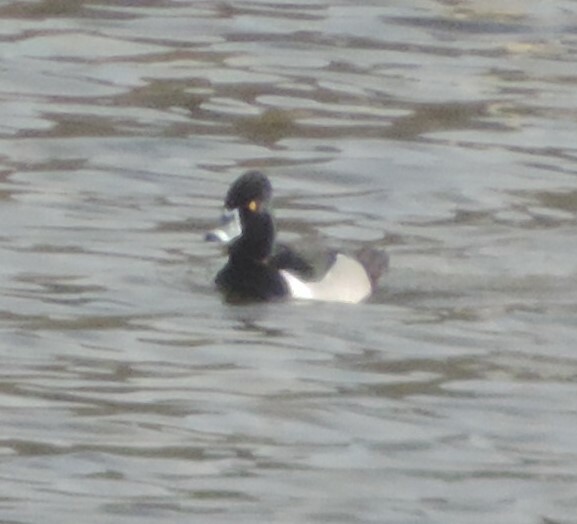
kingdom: Animalia
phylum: Chordata
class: Aves
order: Anseriformes
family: Anatidae
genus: Aythya
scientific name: Aythya collaris
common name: Ring-necked duck
